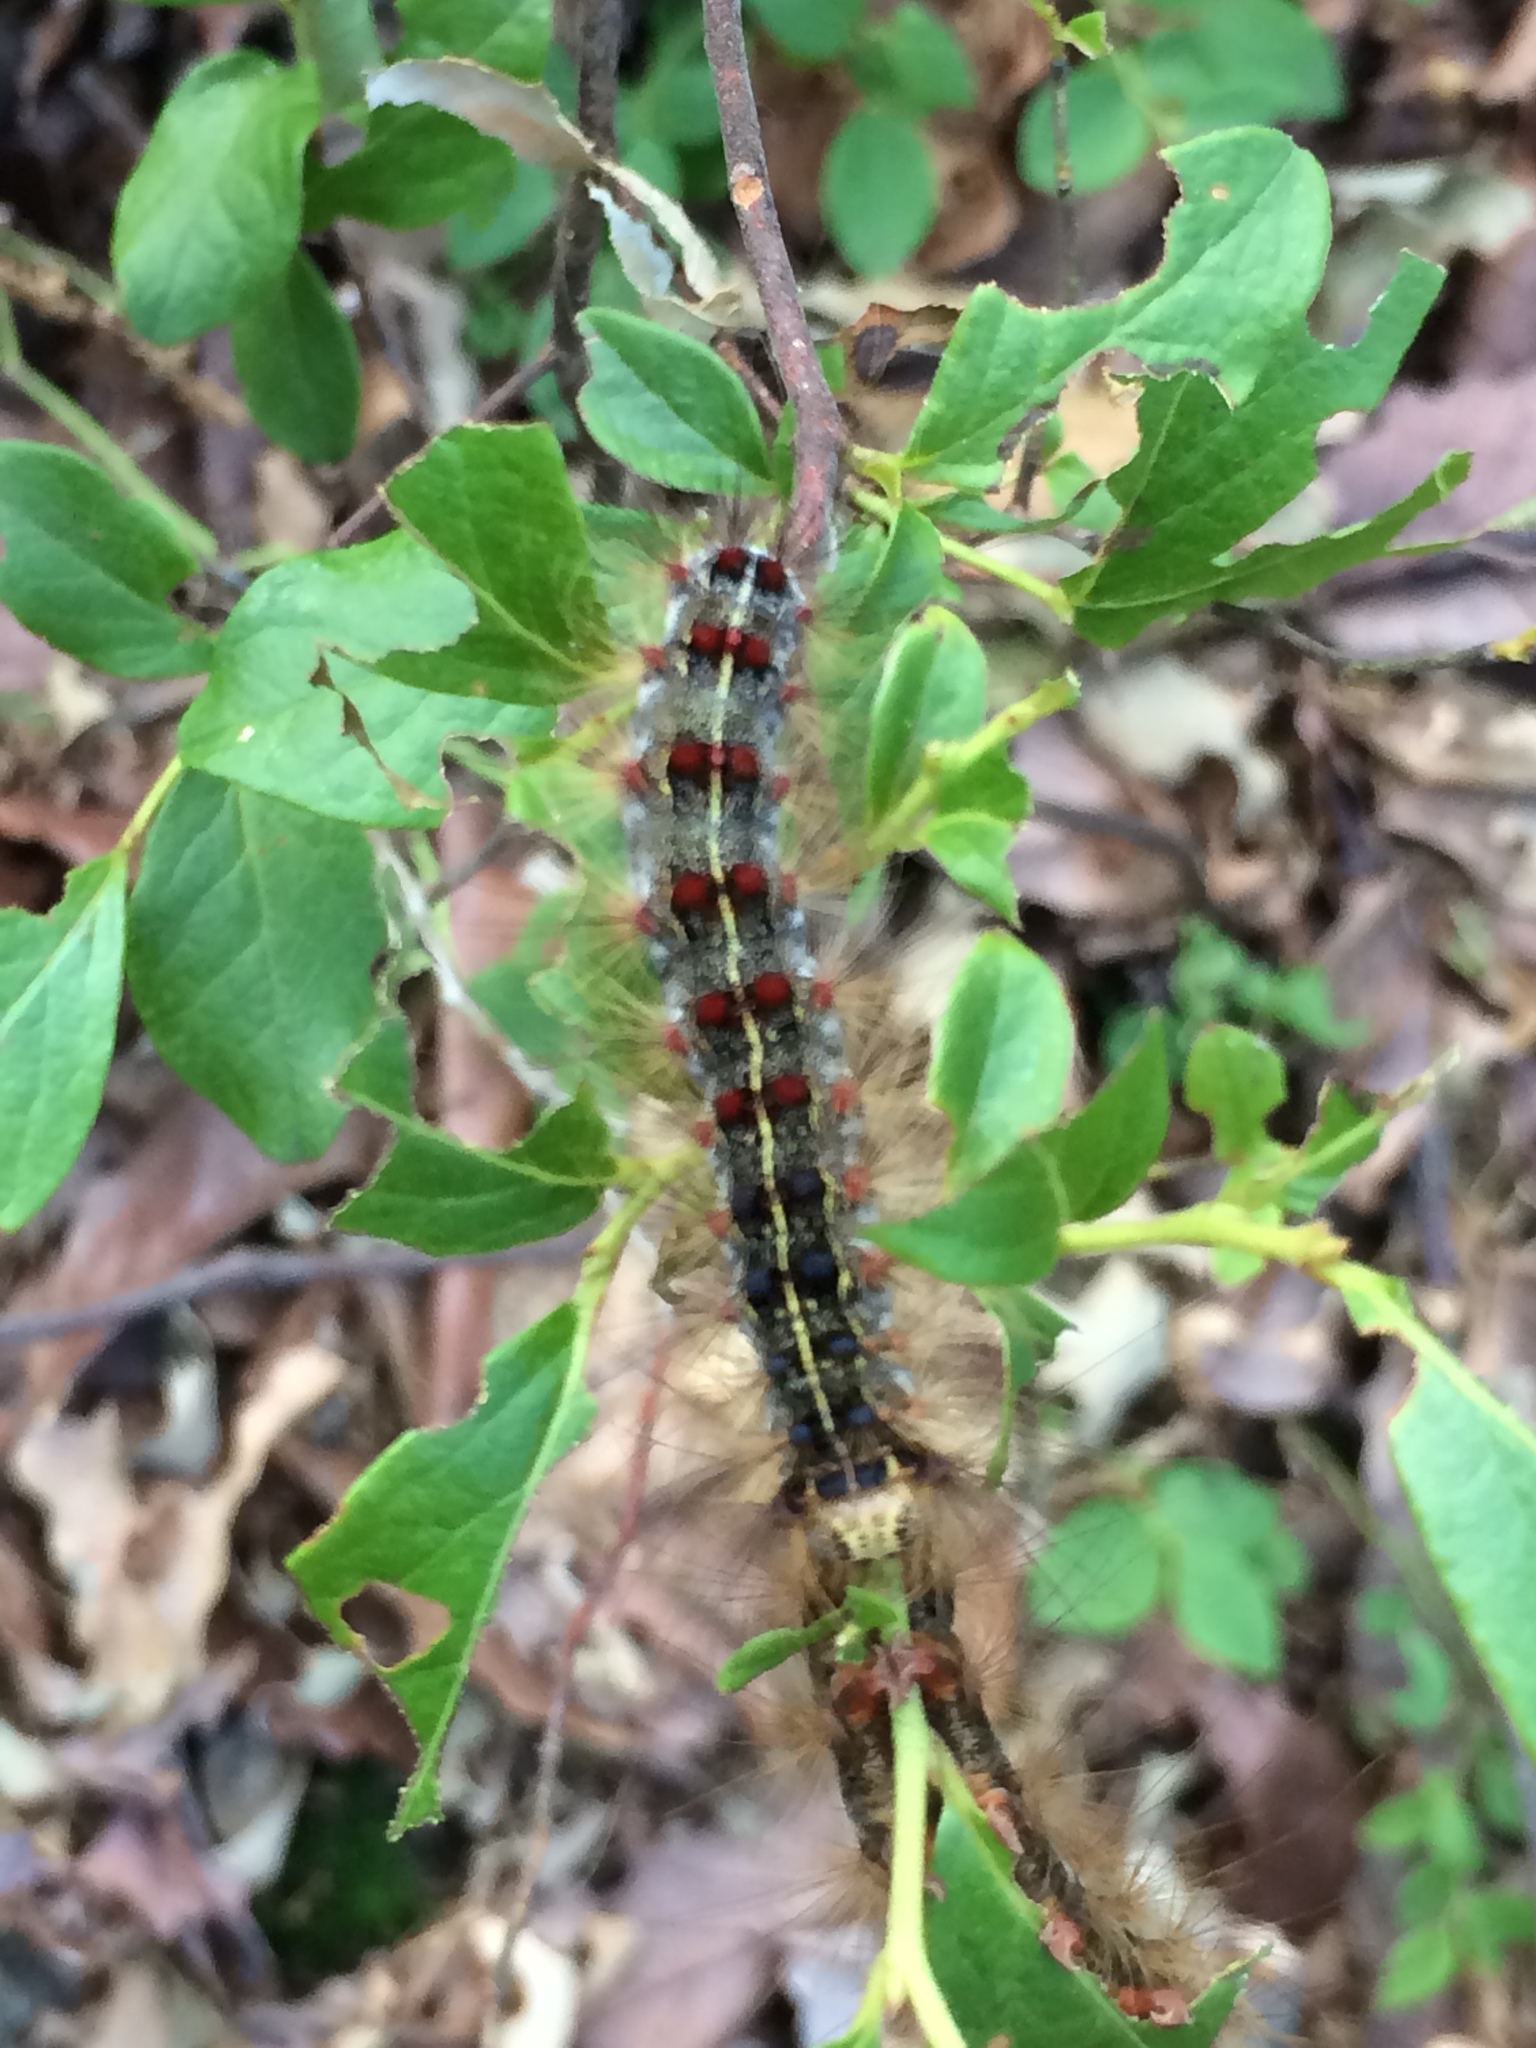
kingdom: Animalia
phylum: Arthropoda
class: Insecta
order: Lepidoptera
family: Erebidae
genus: Lymantria
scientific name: Lymantria dispar
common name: Gypsy moth
